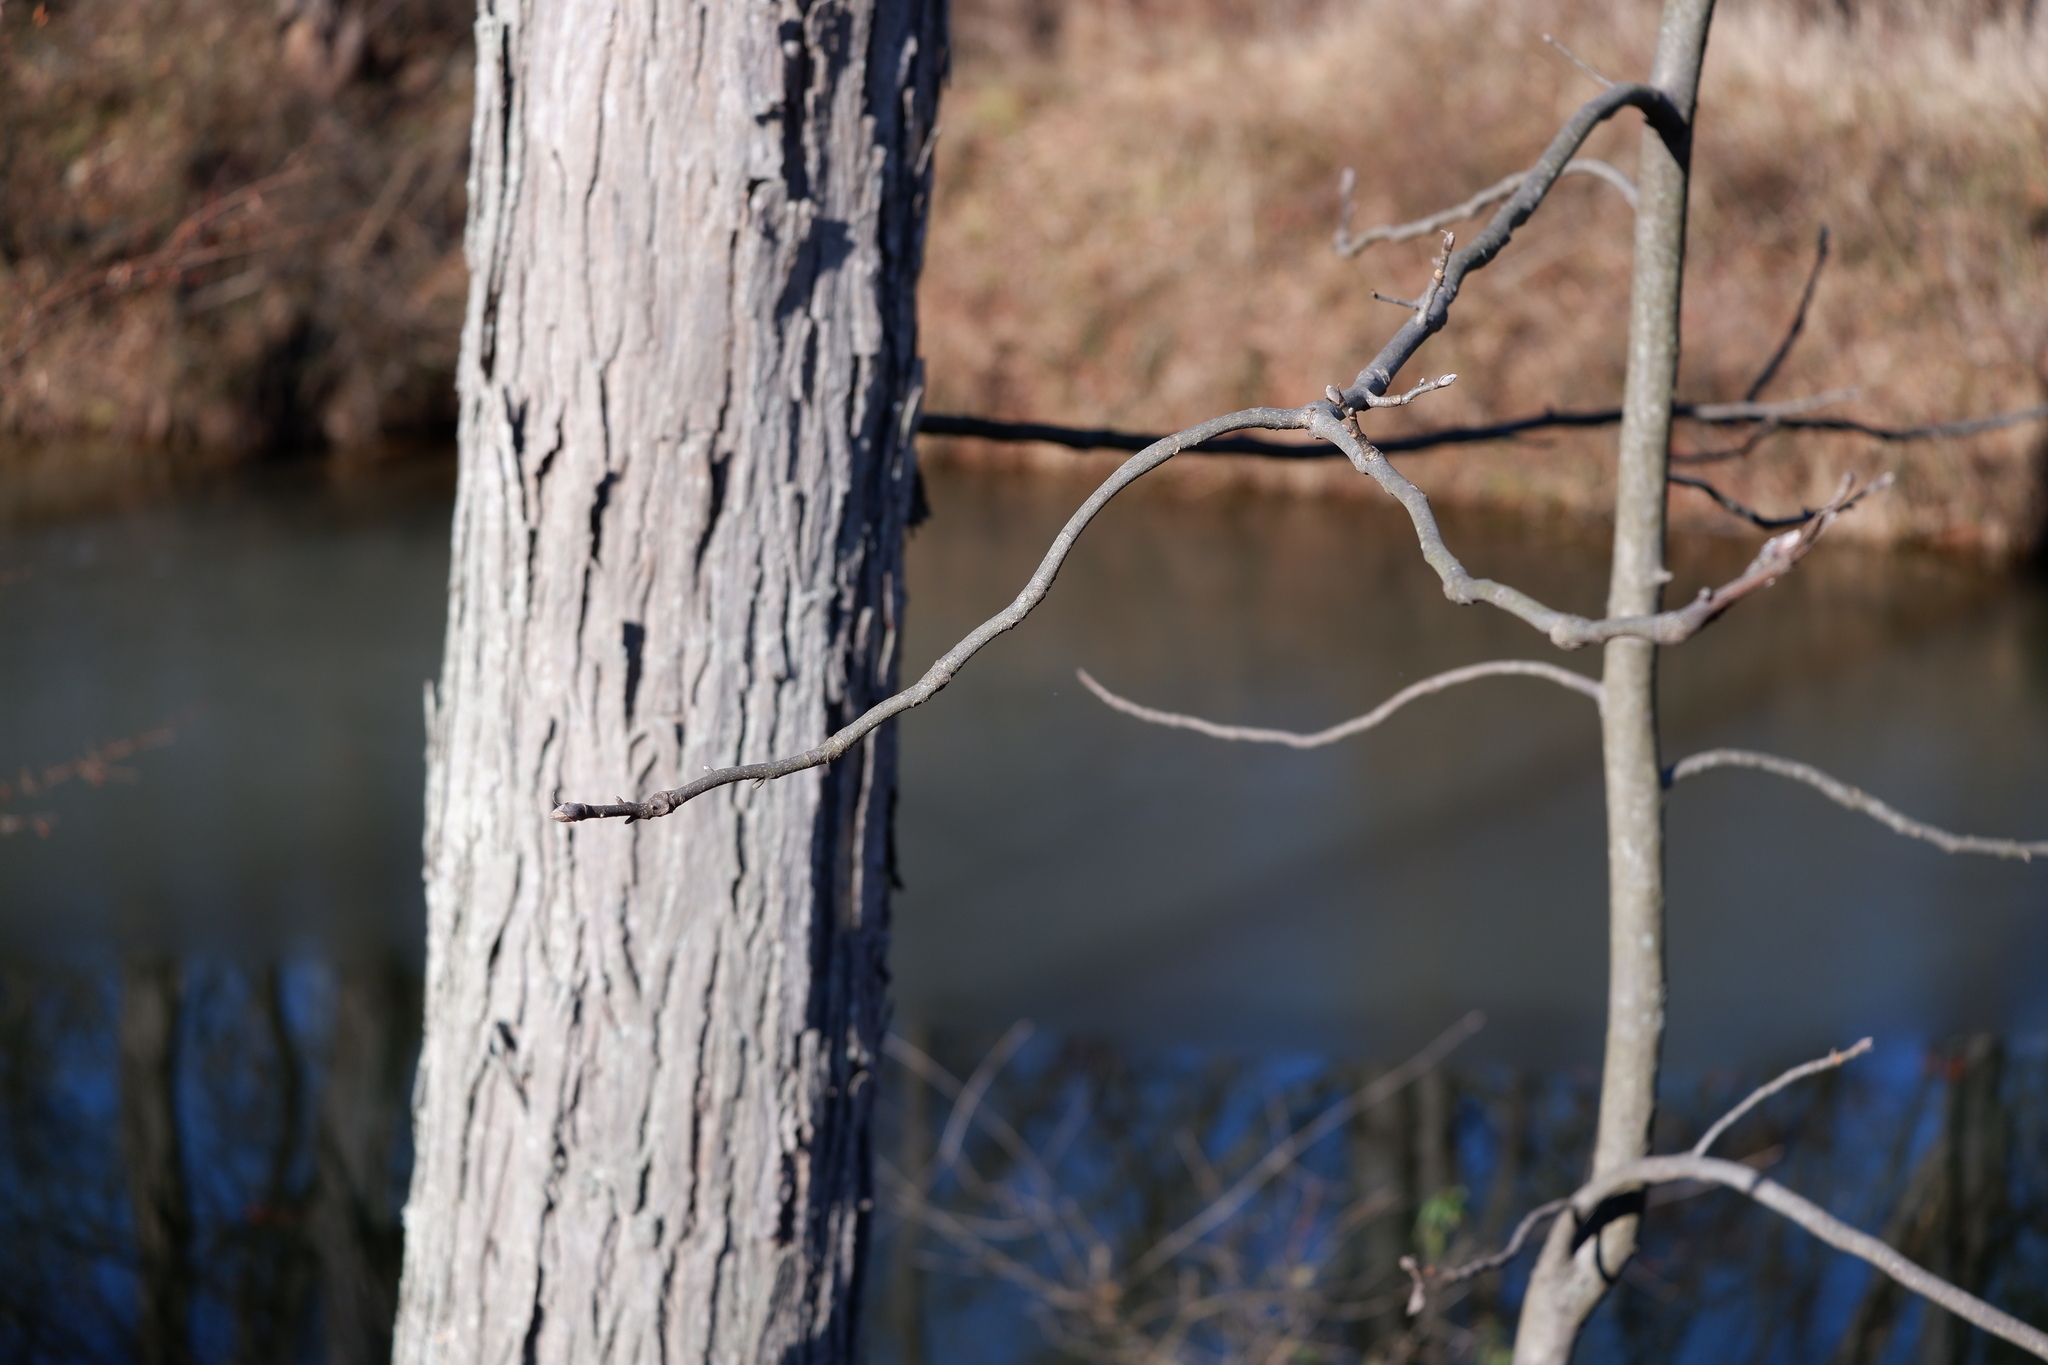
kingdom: Plantae
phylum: Tracheophyta
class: Magnoliopsida
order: Fagales
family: Juglandaceae
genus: Carya
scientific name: Carya ovata
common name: Shagbark hickory
